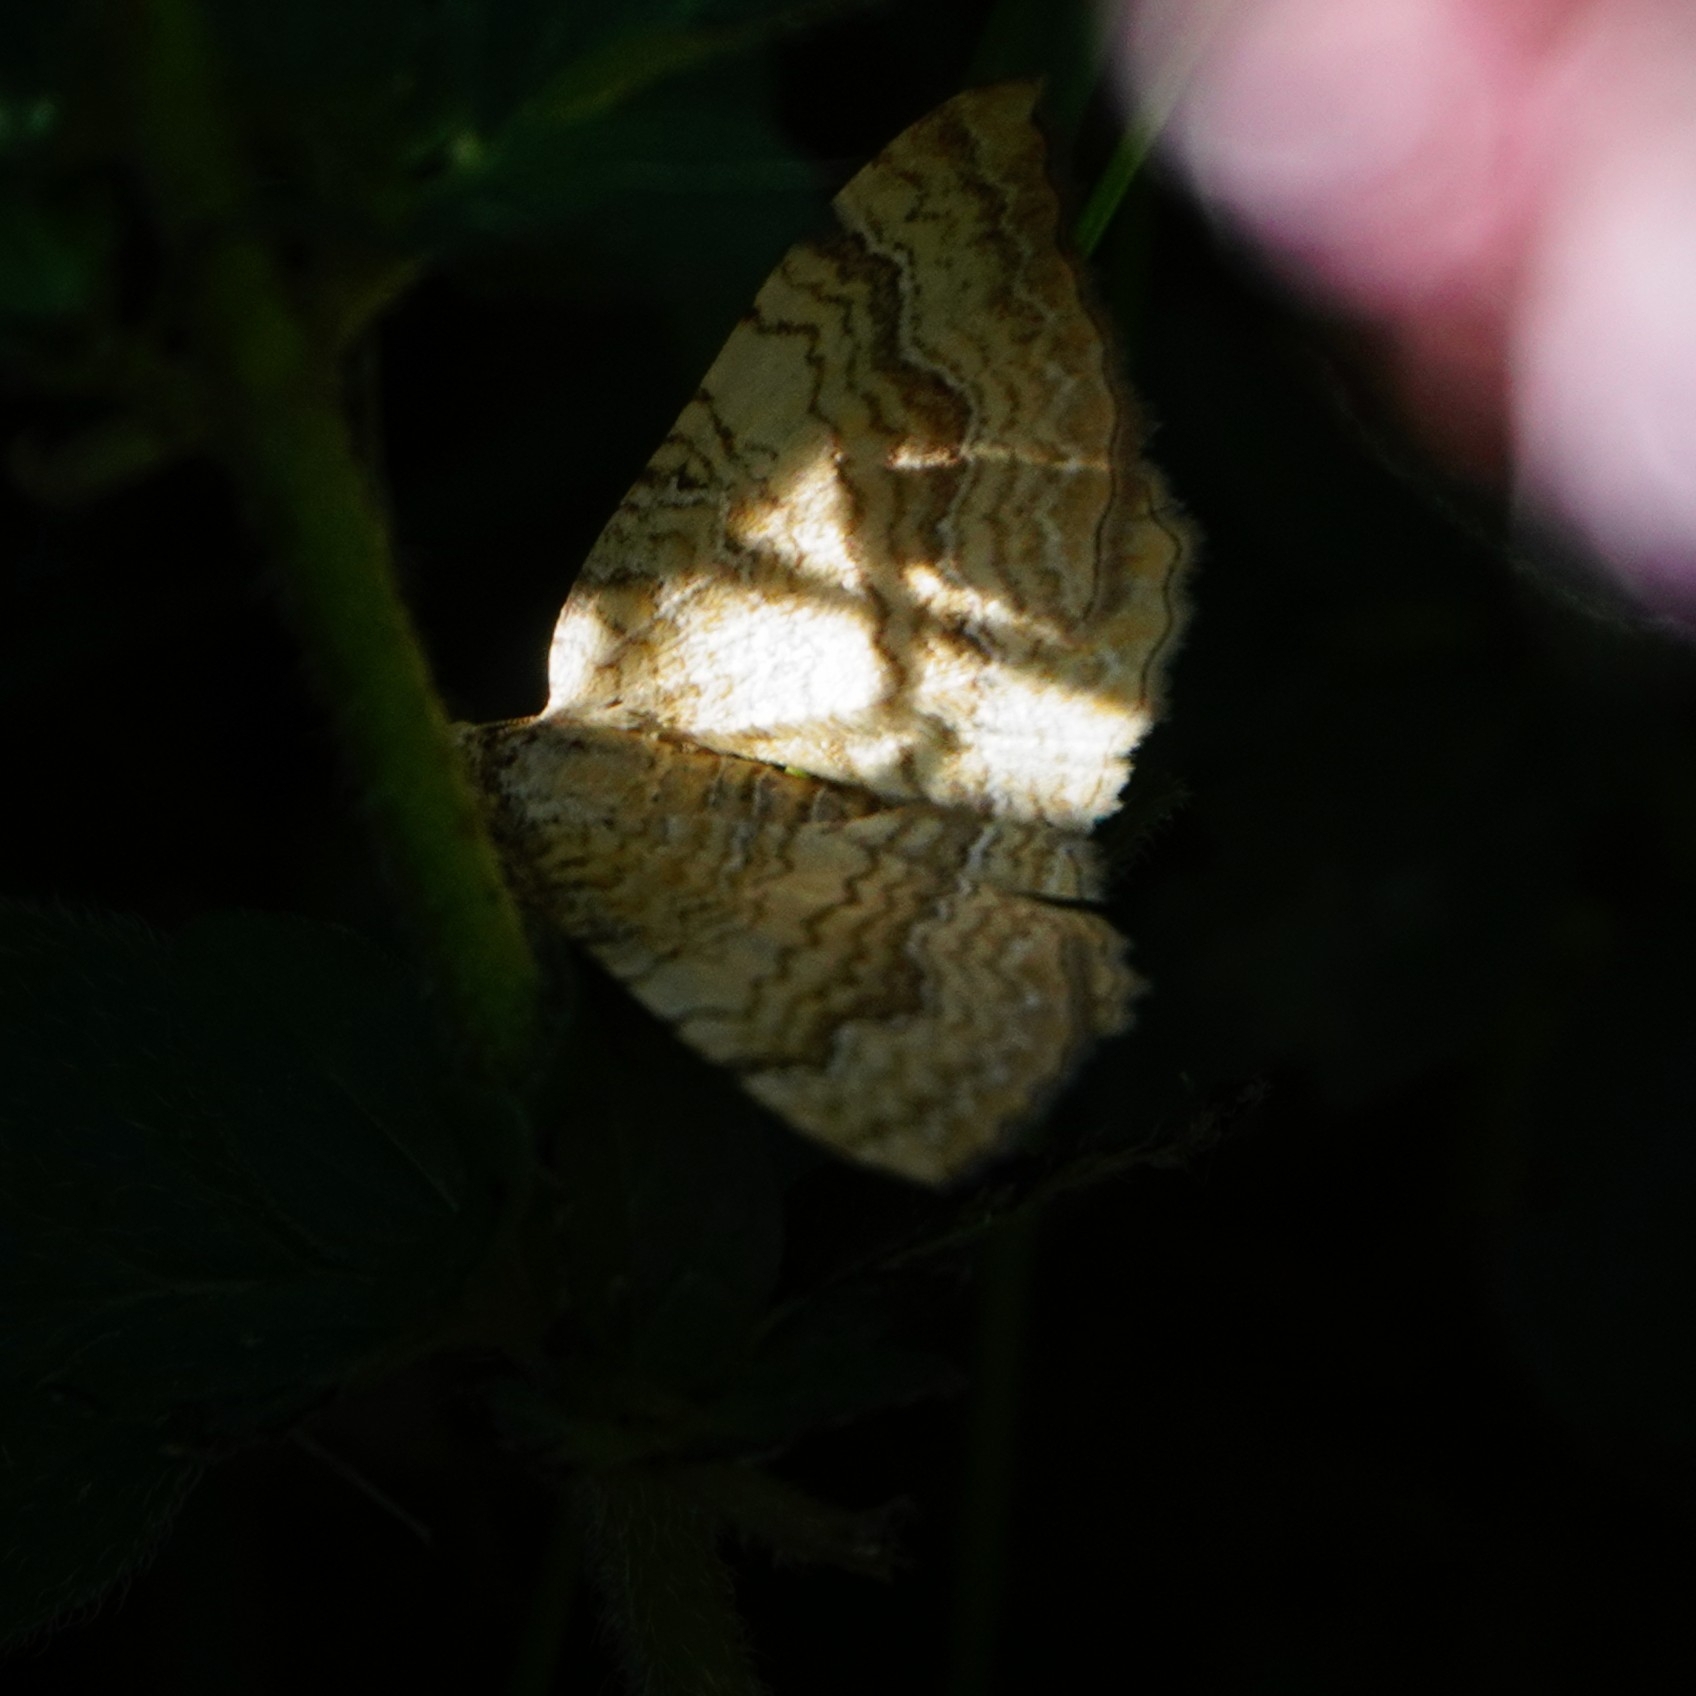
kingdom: Animalia
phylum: Arthropoda
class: Insecta
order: Lepidoptera
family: Geometridae
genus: Camptogramma
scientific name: Camptogramma bilineata
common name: Yellow shell
